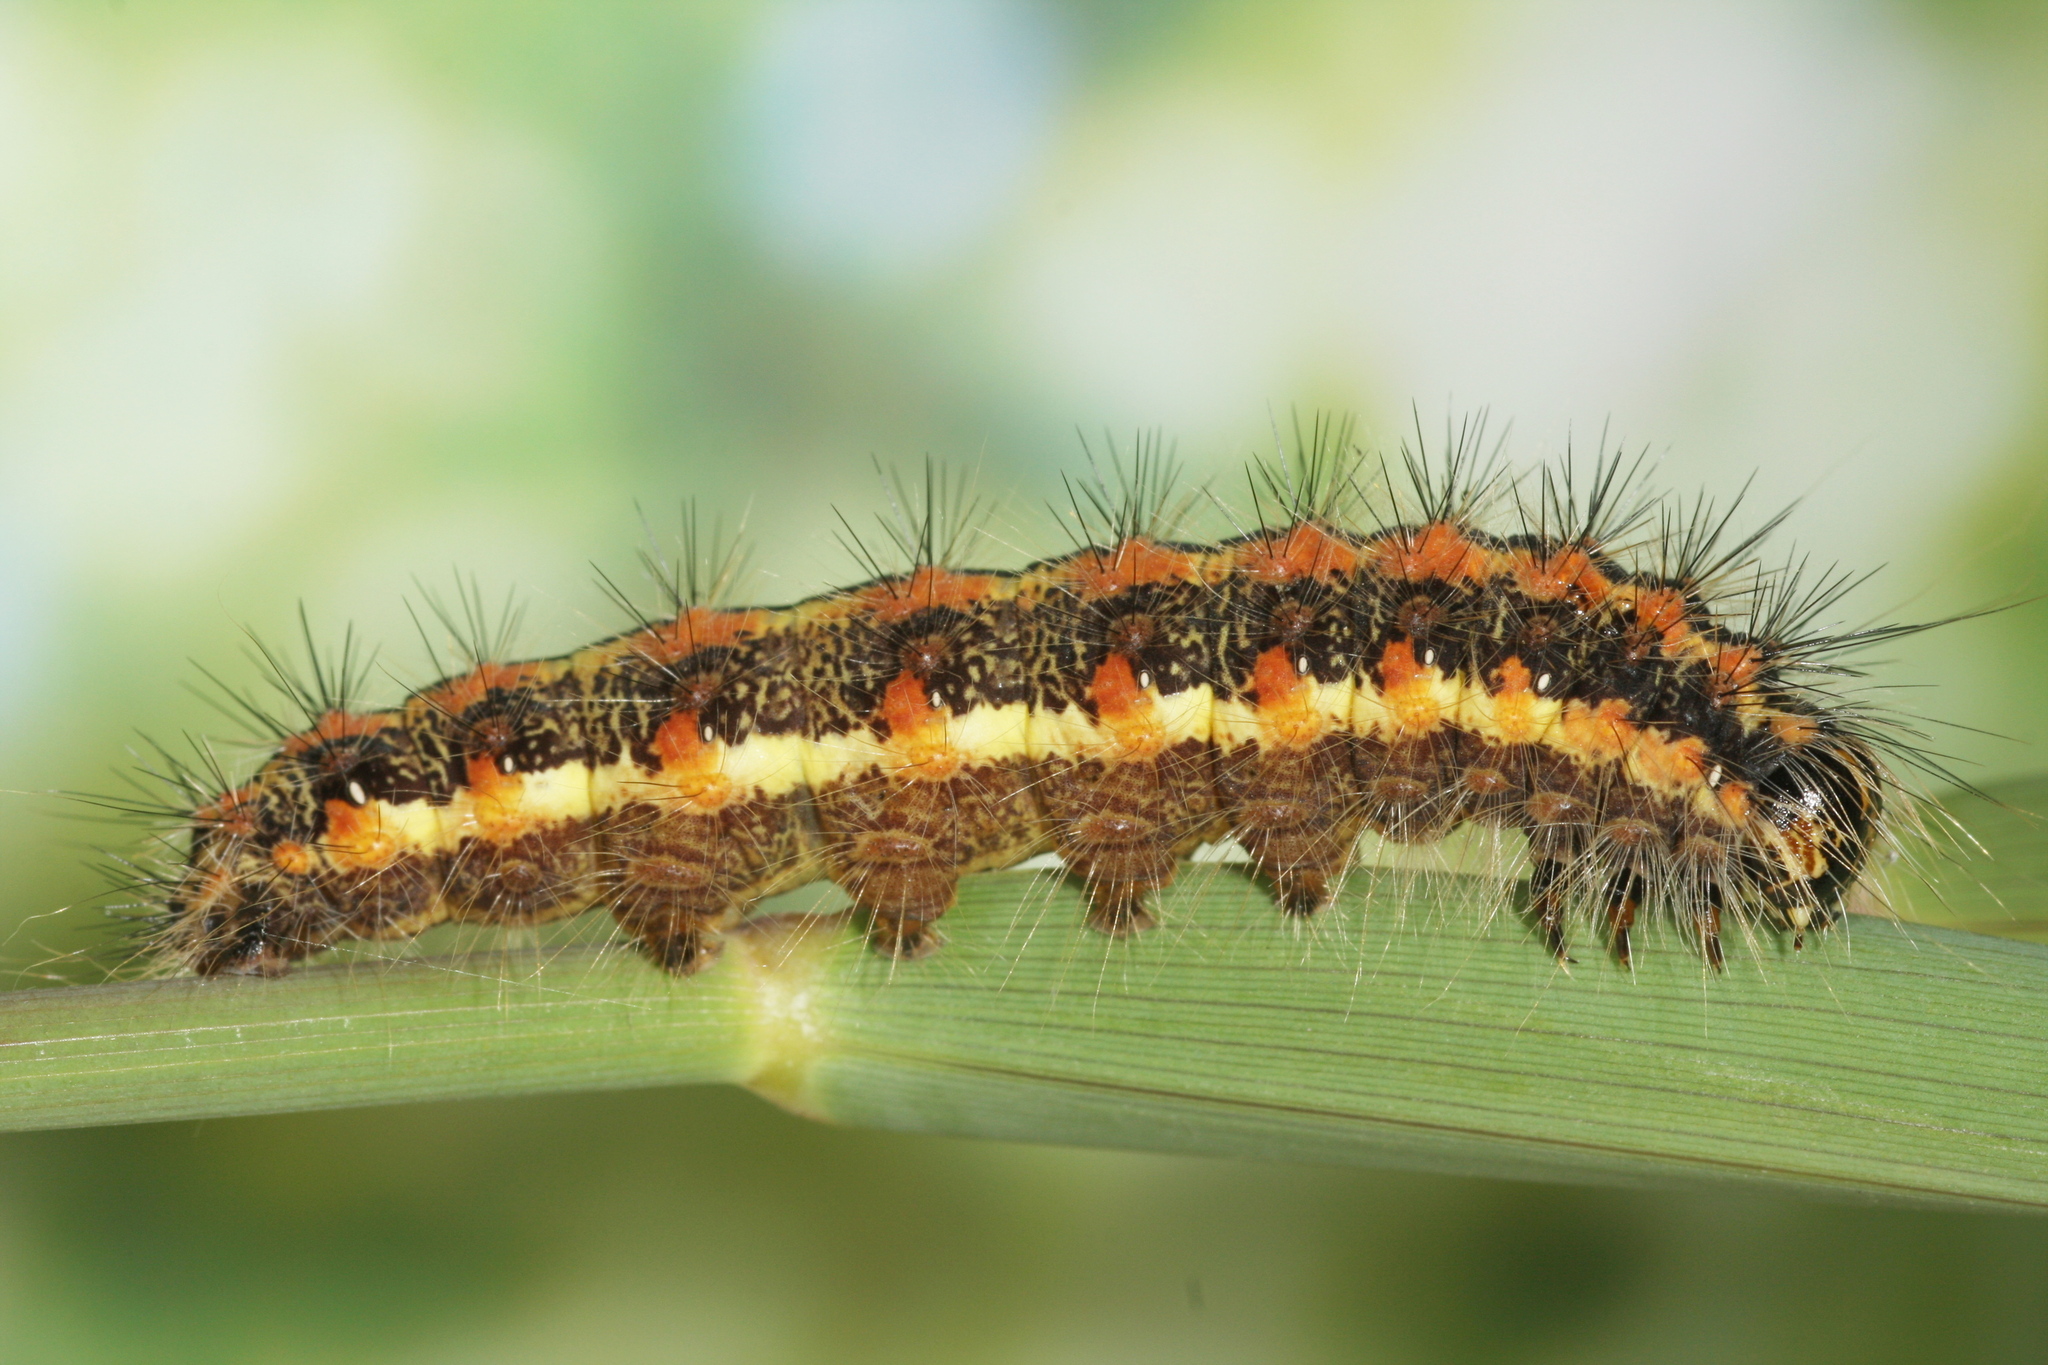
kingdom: Animalia
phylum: Arthropoda
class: Insecta
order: Lepidoptera
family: Noctuidae
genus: Simyra
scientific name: Simyra albovenosa
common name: Reed dagger
